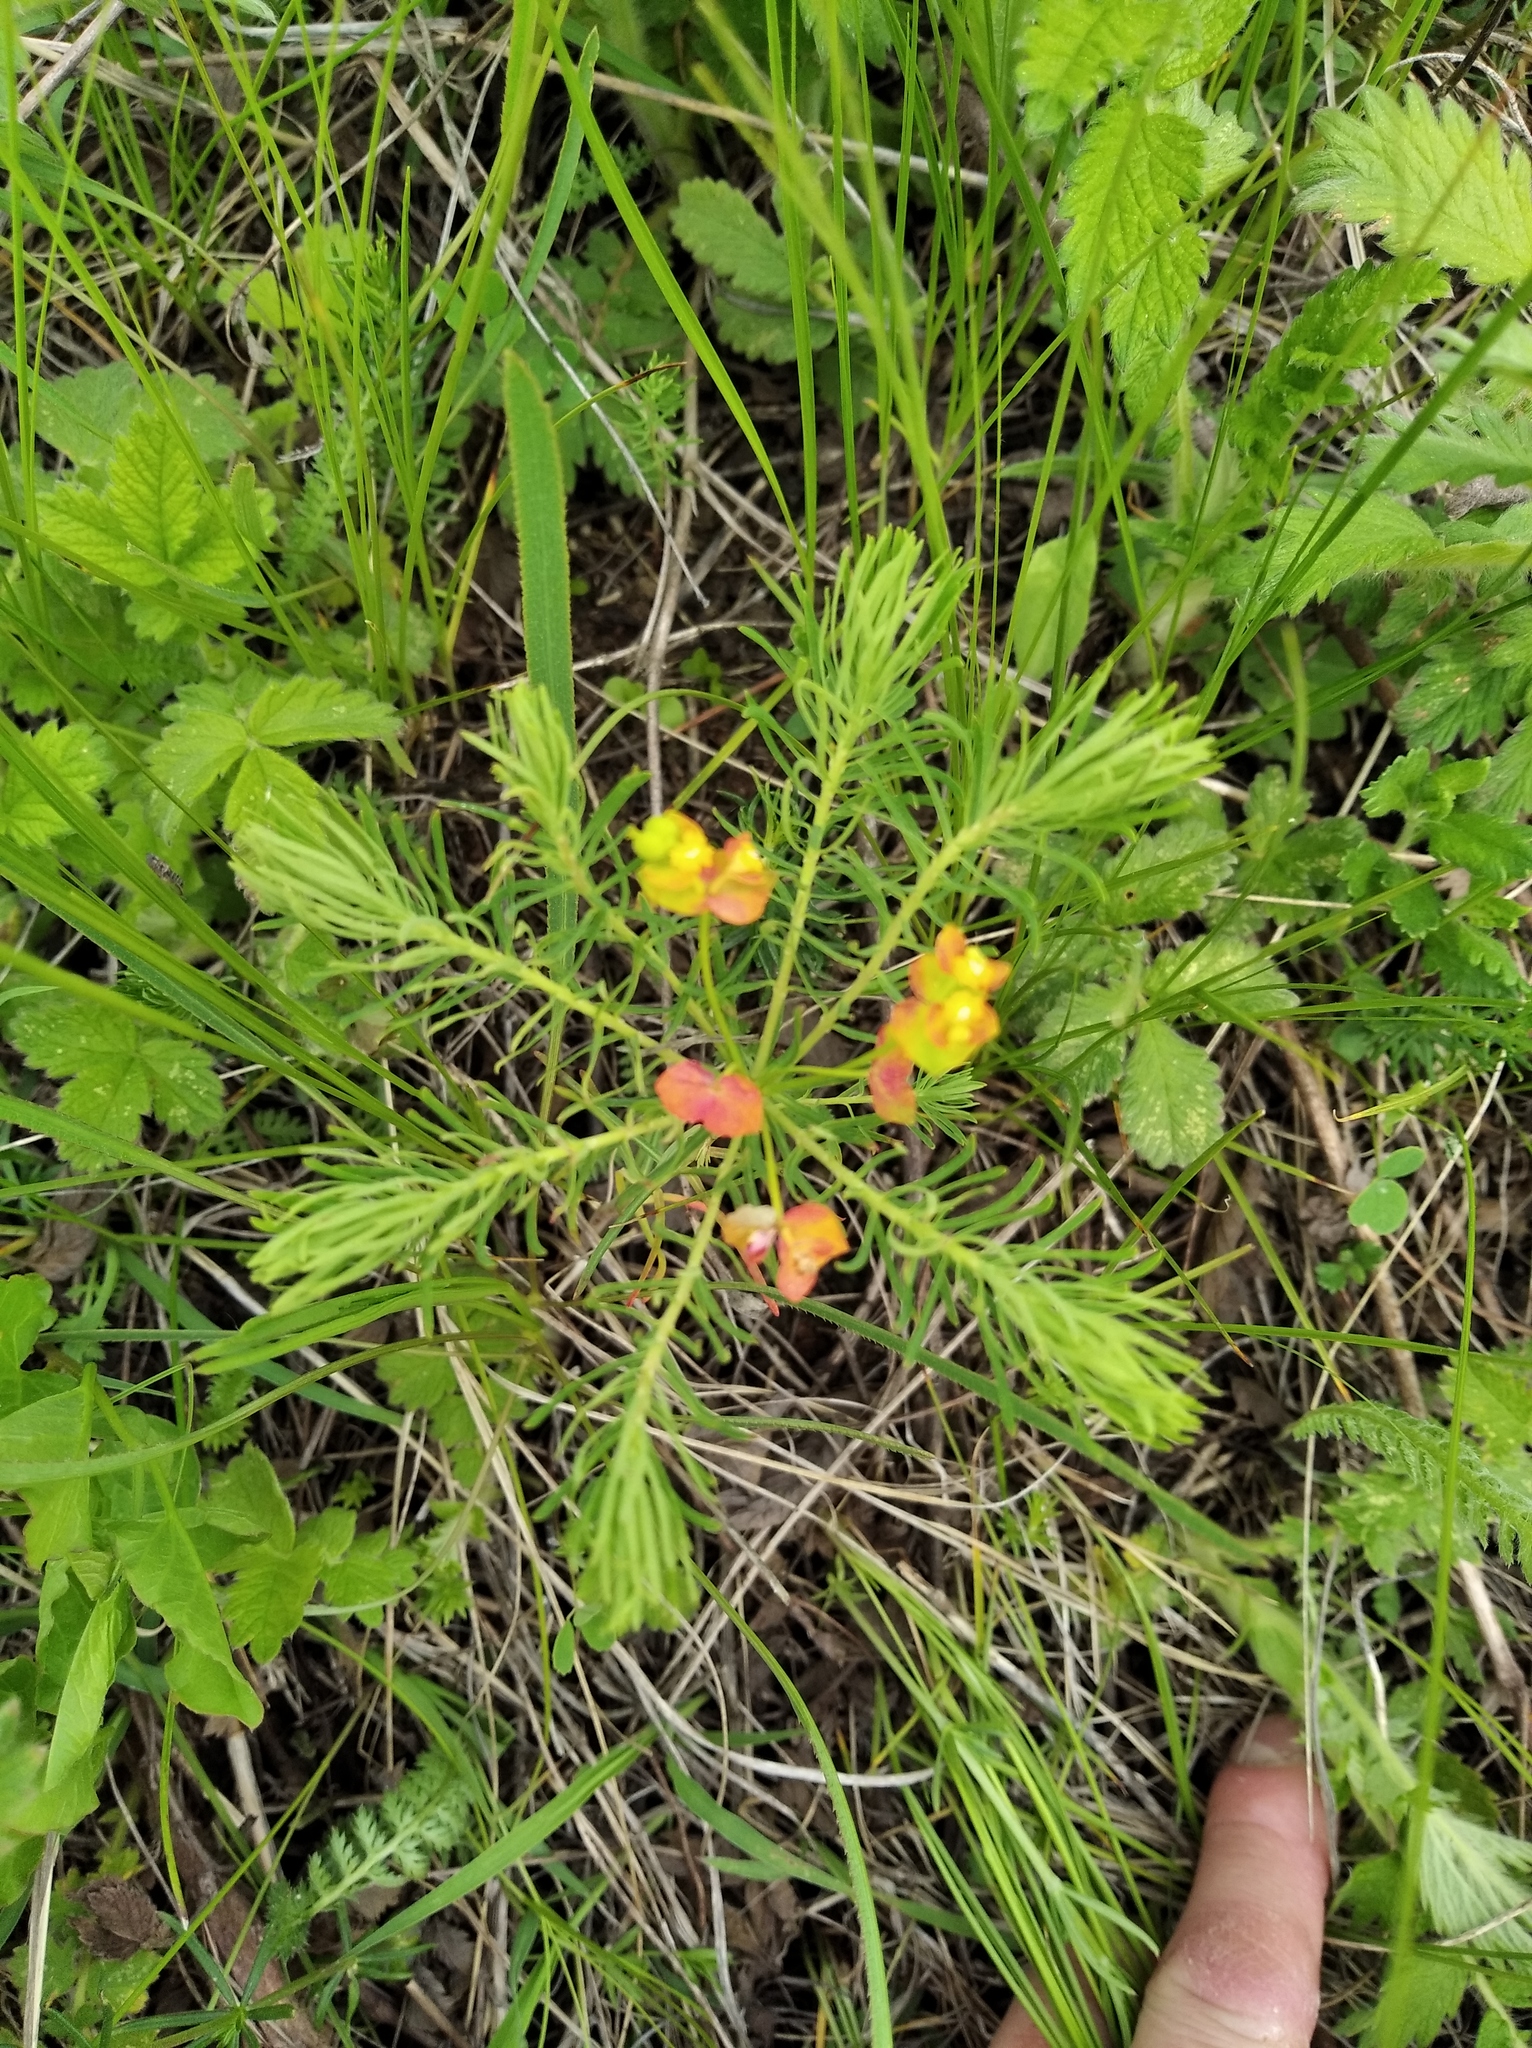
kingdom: Plantae
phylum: Tracheophyta
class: Magnoliopsida
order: Malpighiales
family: Euphorbiaceae
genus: Euphorbia
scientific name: Euphorbia cyparissias
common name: Cypress spurge
